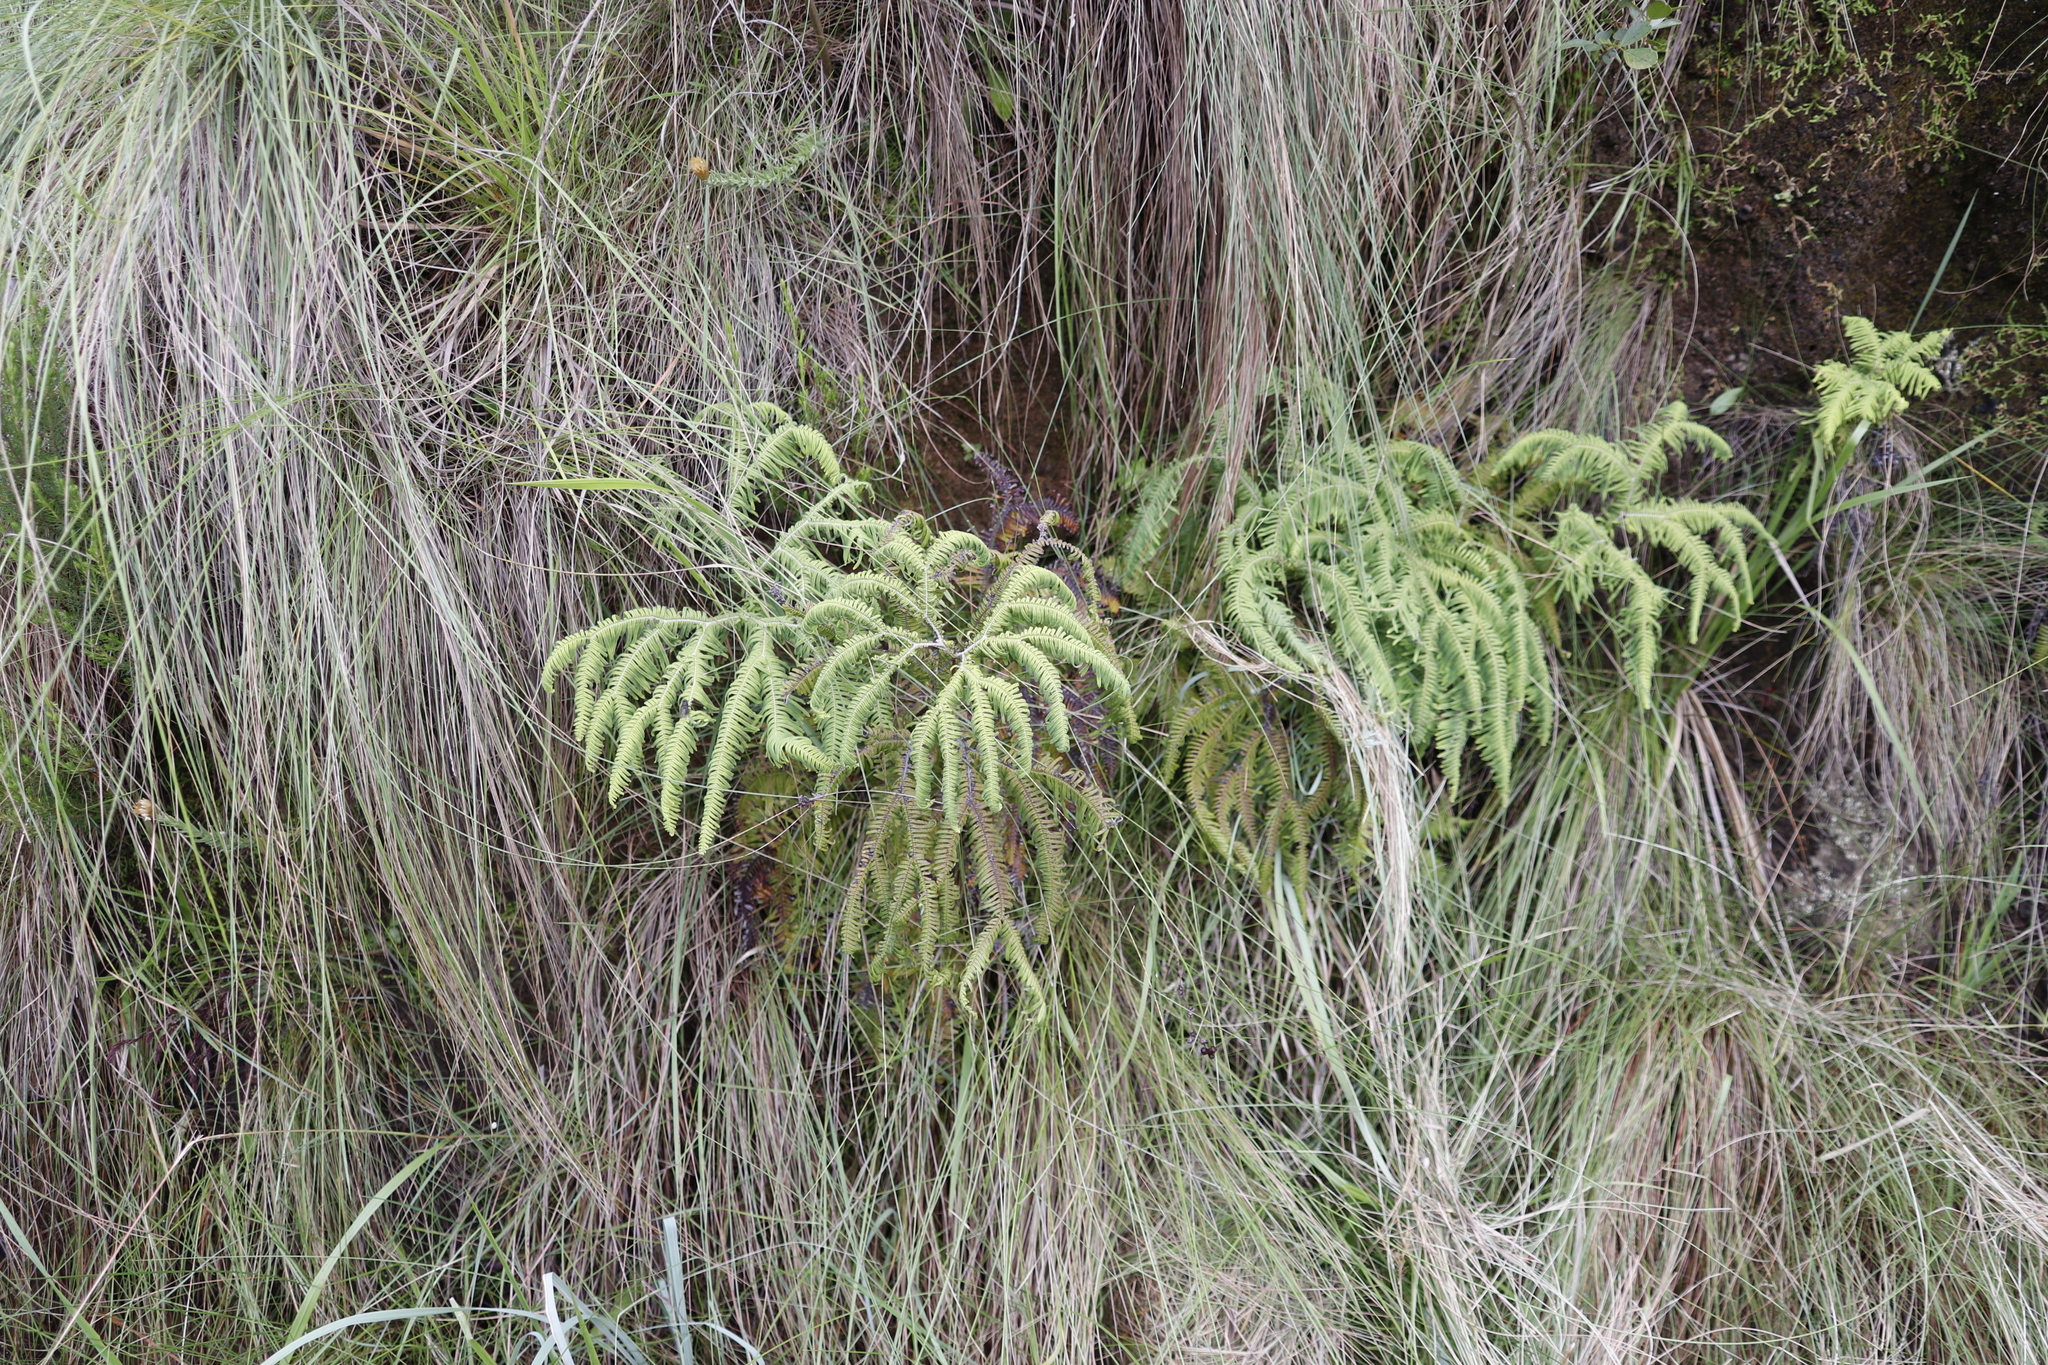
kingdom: Plantae
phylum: Tracheophyta
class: Polypodiopsida
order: Gleicheniales
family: Gleicheniaceae
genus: Sticherus
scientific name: Sticherus umbraculifer
